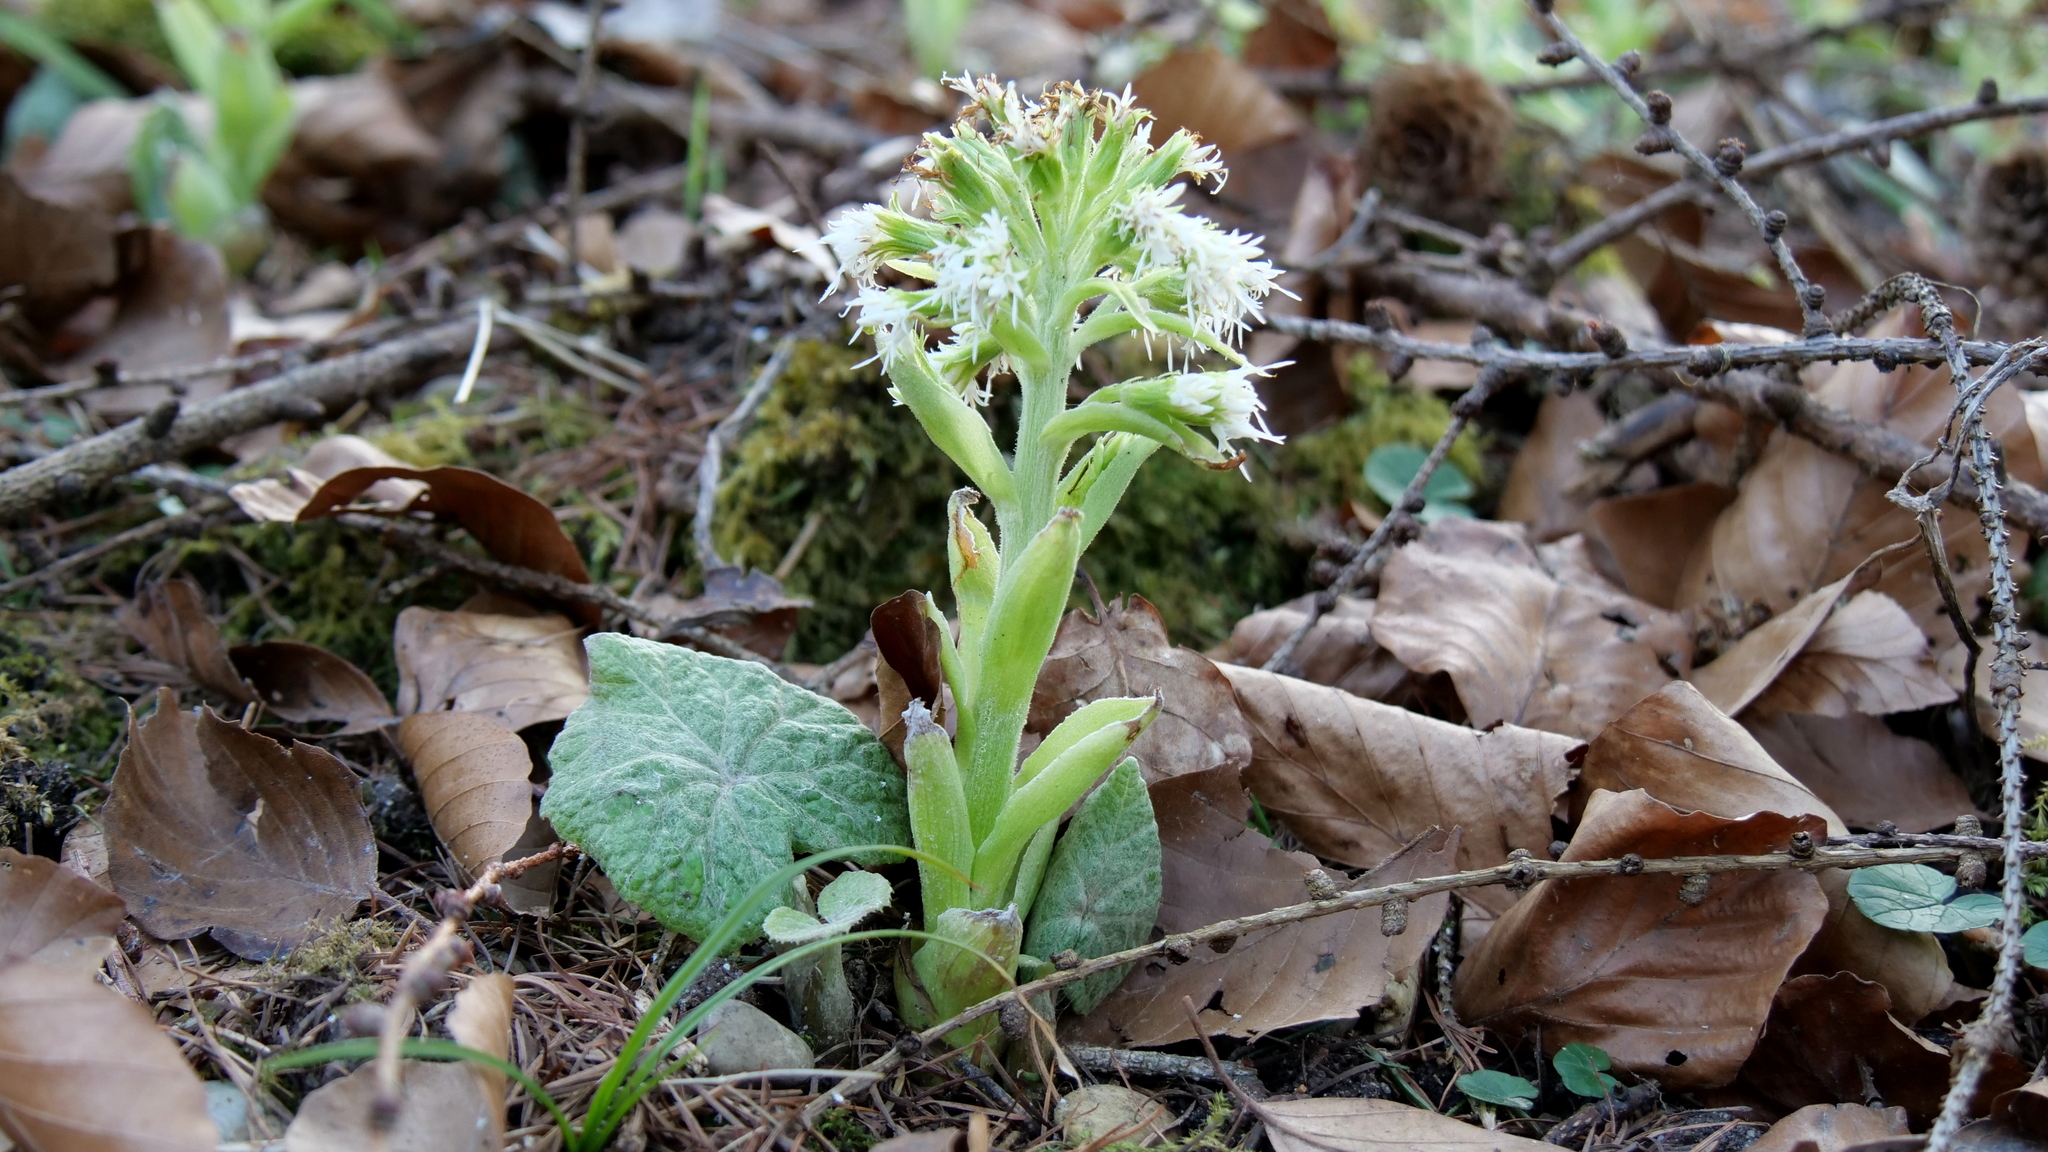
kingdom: Plantae
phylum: Tracheophyta
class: Magnoliopsida
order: Asterales
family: Asteraceae
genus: Petasites
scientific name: Petasites albus
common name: White butterbur
